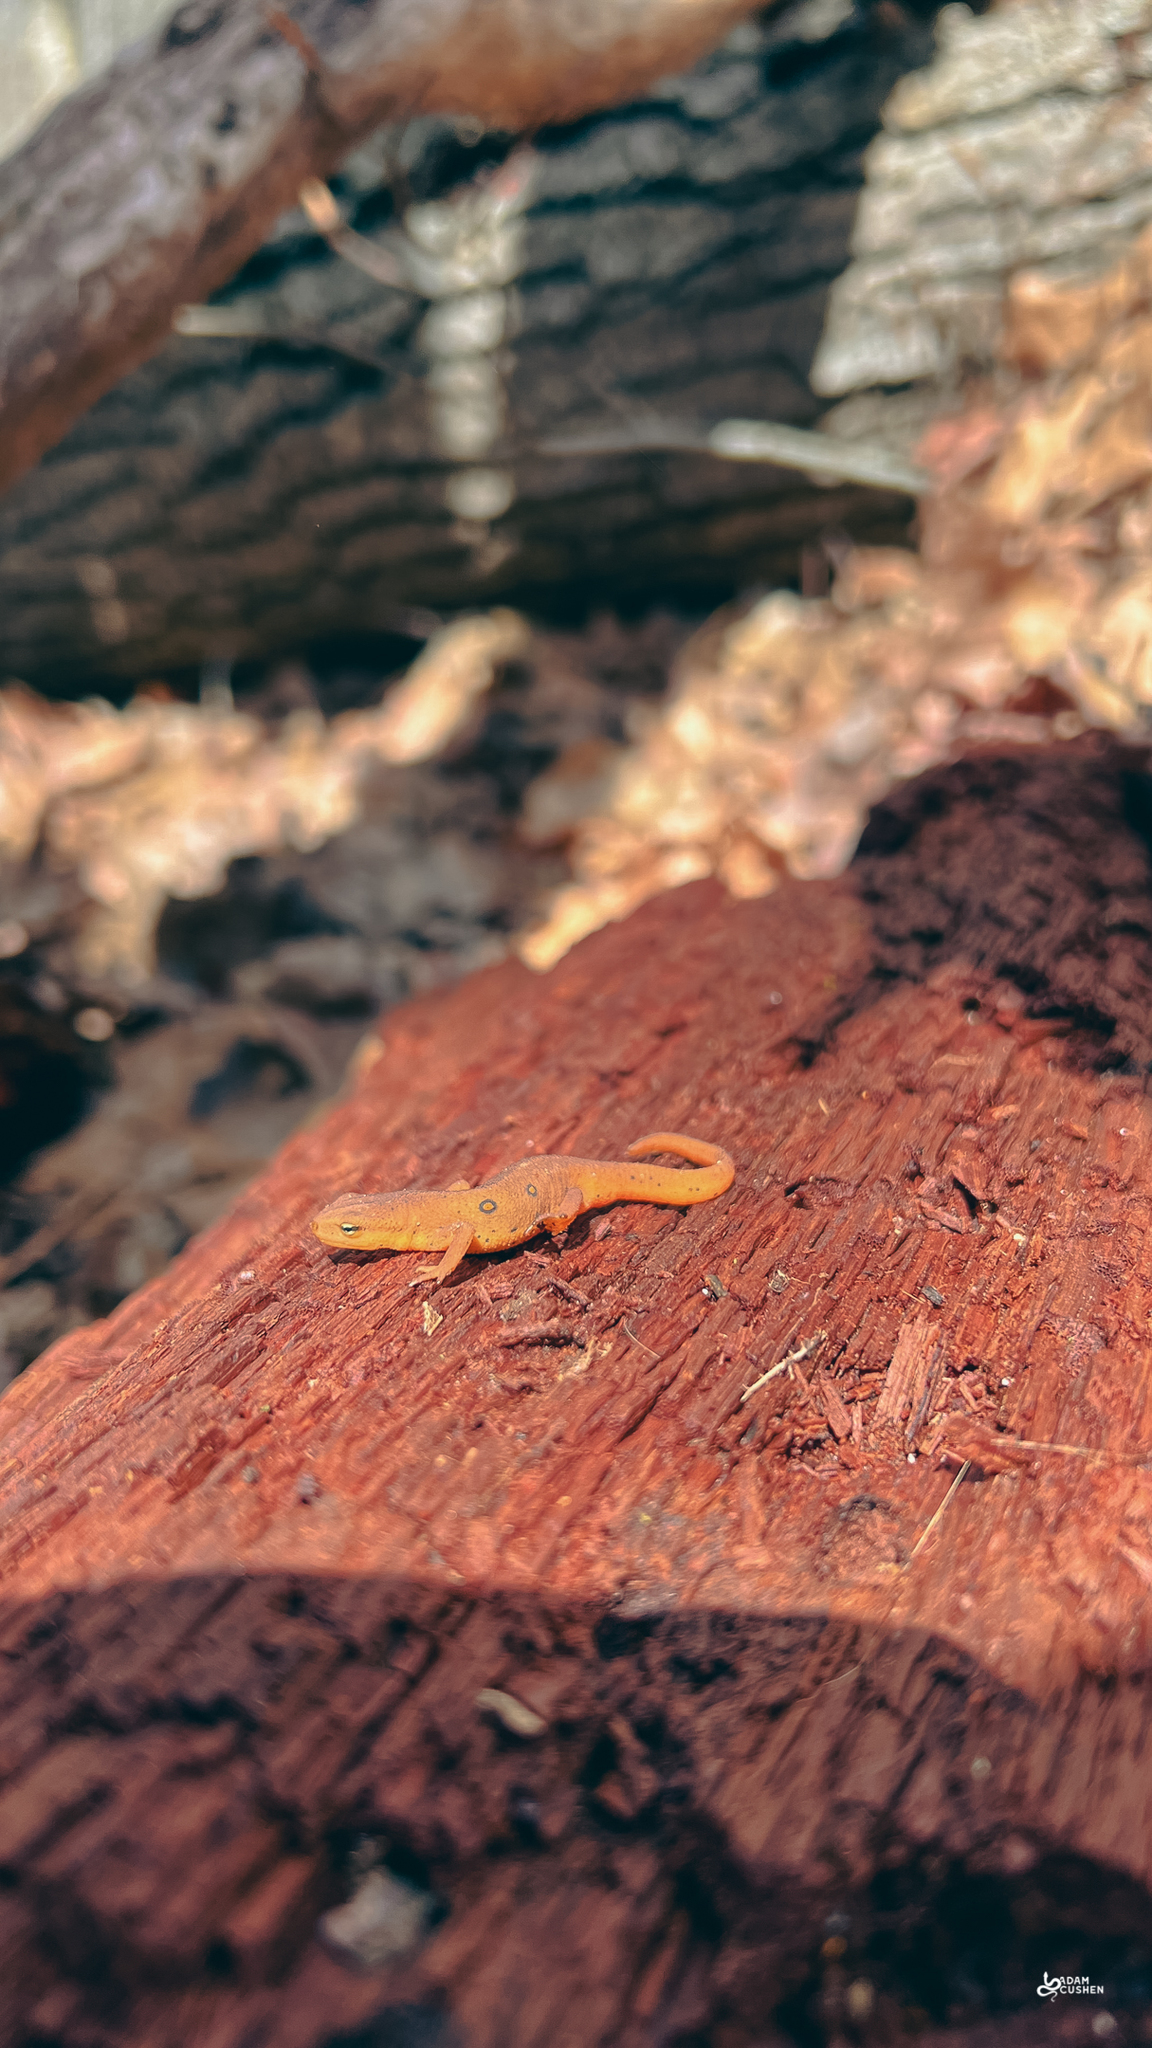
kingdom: Animalia
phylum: Chordata
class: Amphibia
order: Caudata
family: Salamandridae
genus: Notophthalmus
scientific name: Notophthalmus viridescens
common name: Eastern newt
